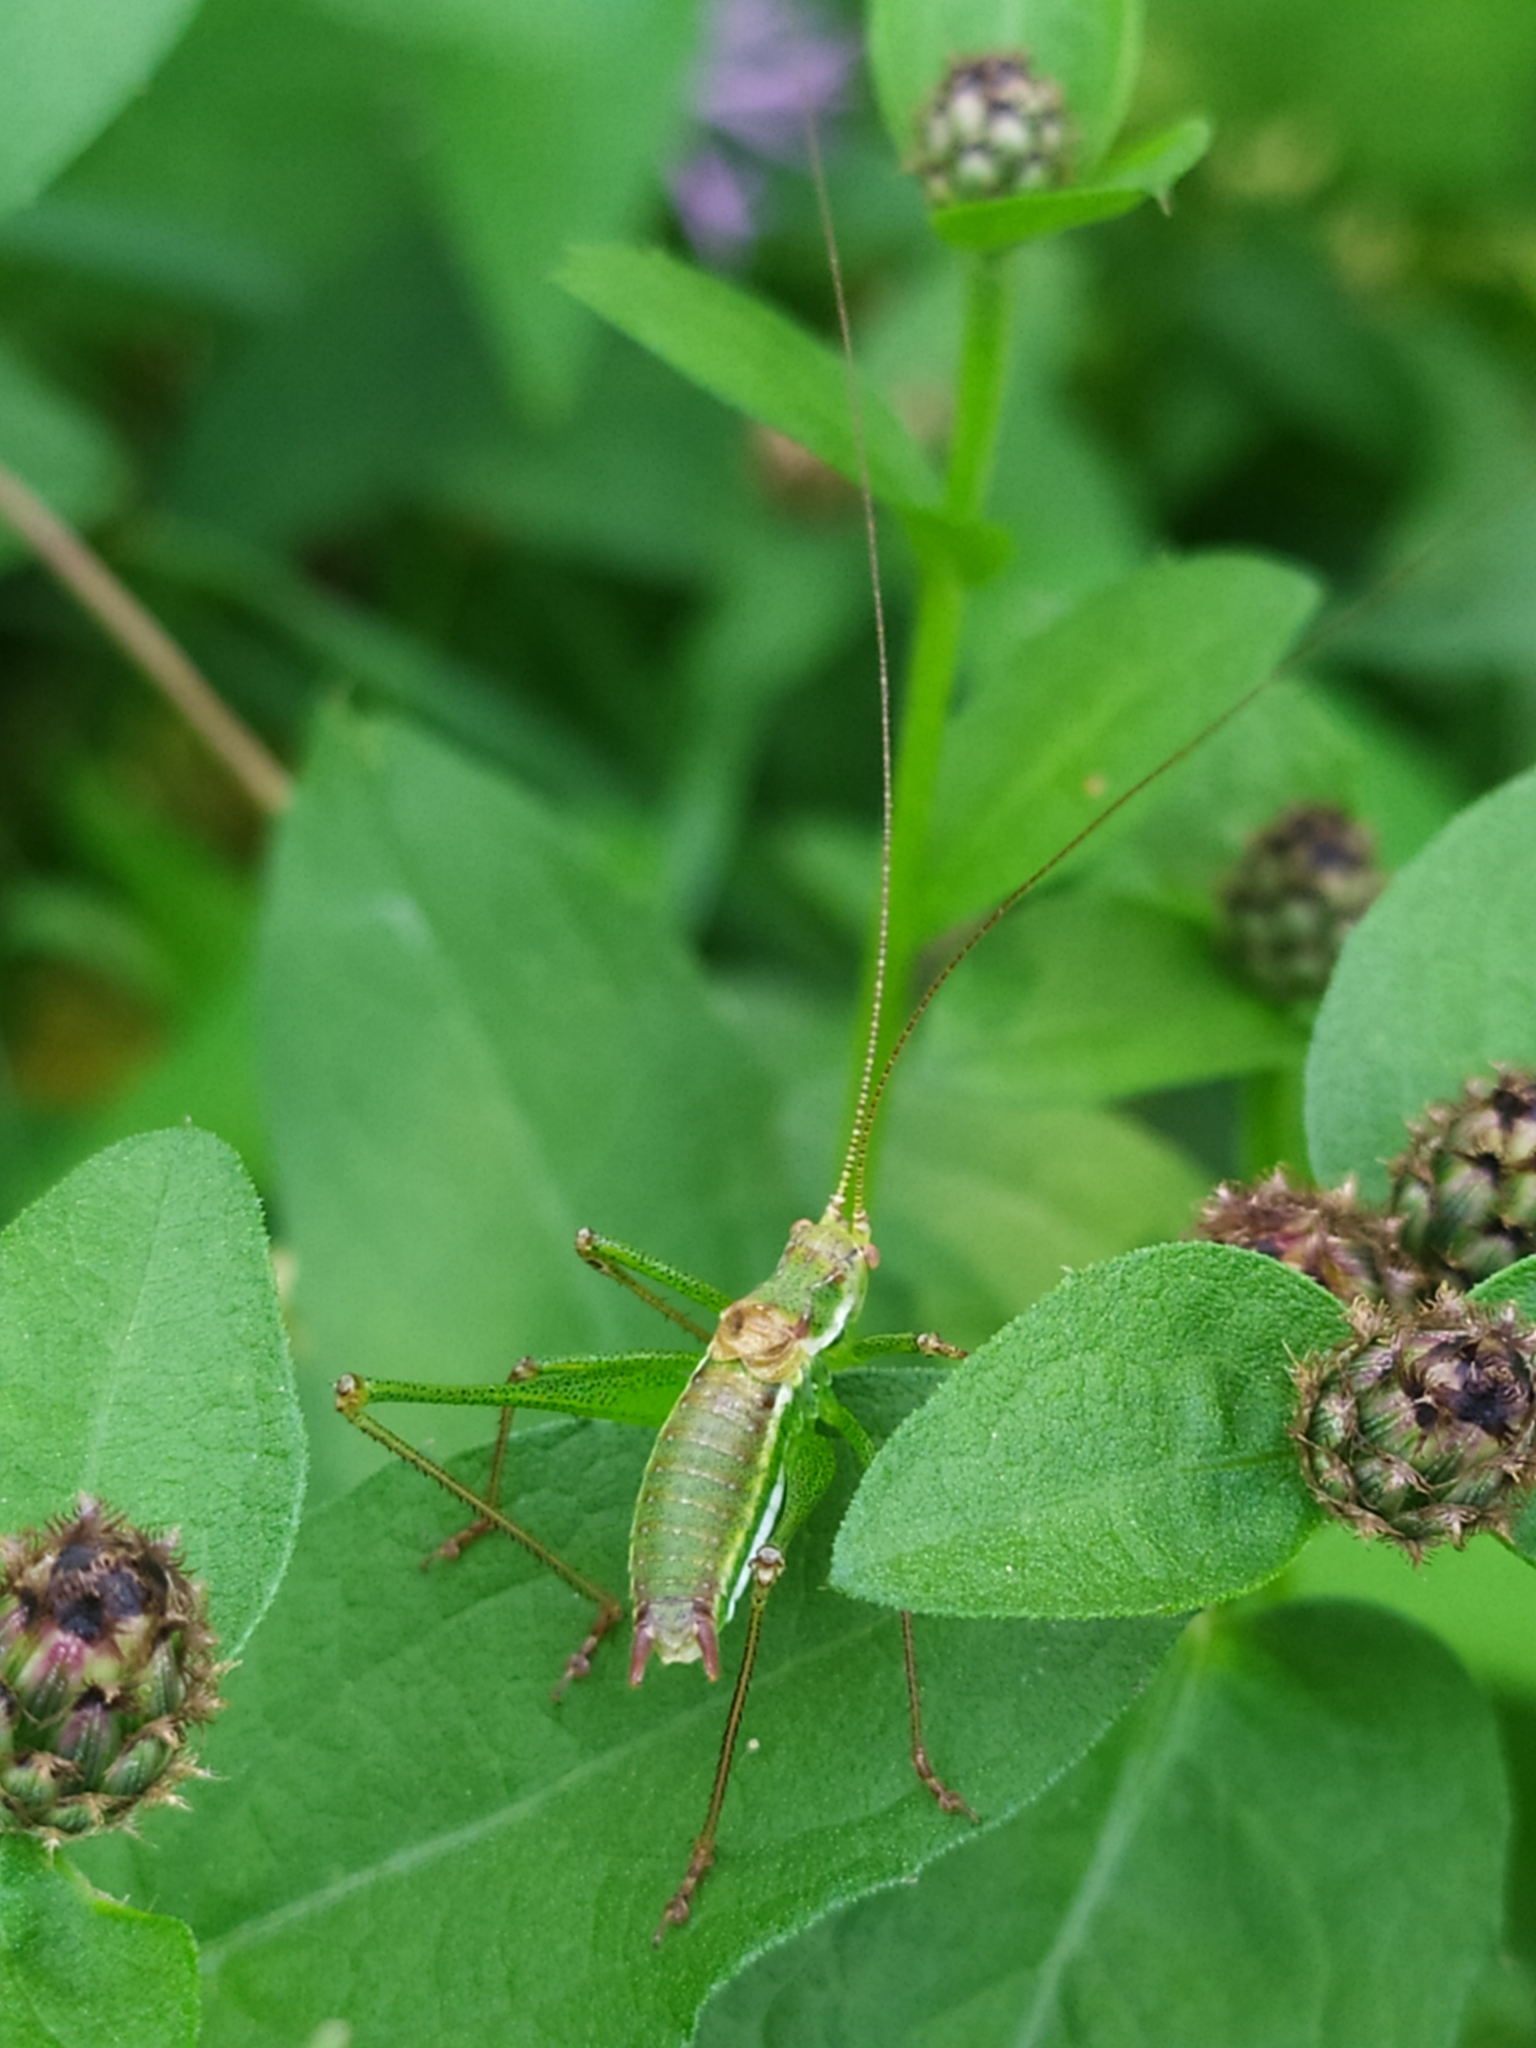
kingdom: Animalia
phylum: Arthropoda
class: Insecta
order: Orthoptera
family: Tettigoniidae
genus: Leptophyes
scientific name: Leptophyes albovittata
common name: Striped bush-cricket
